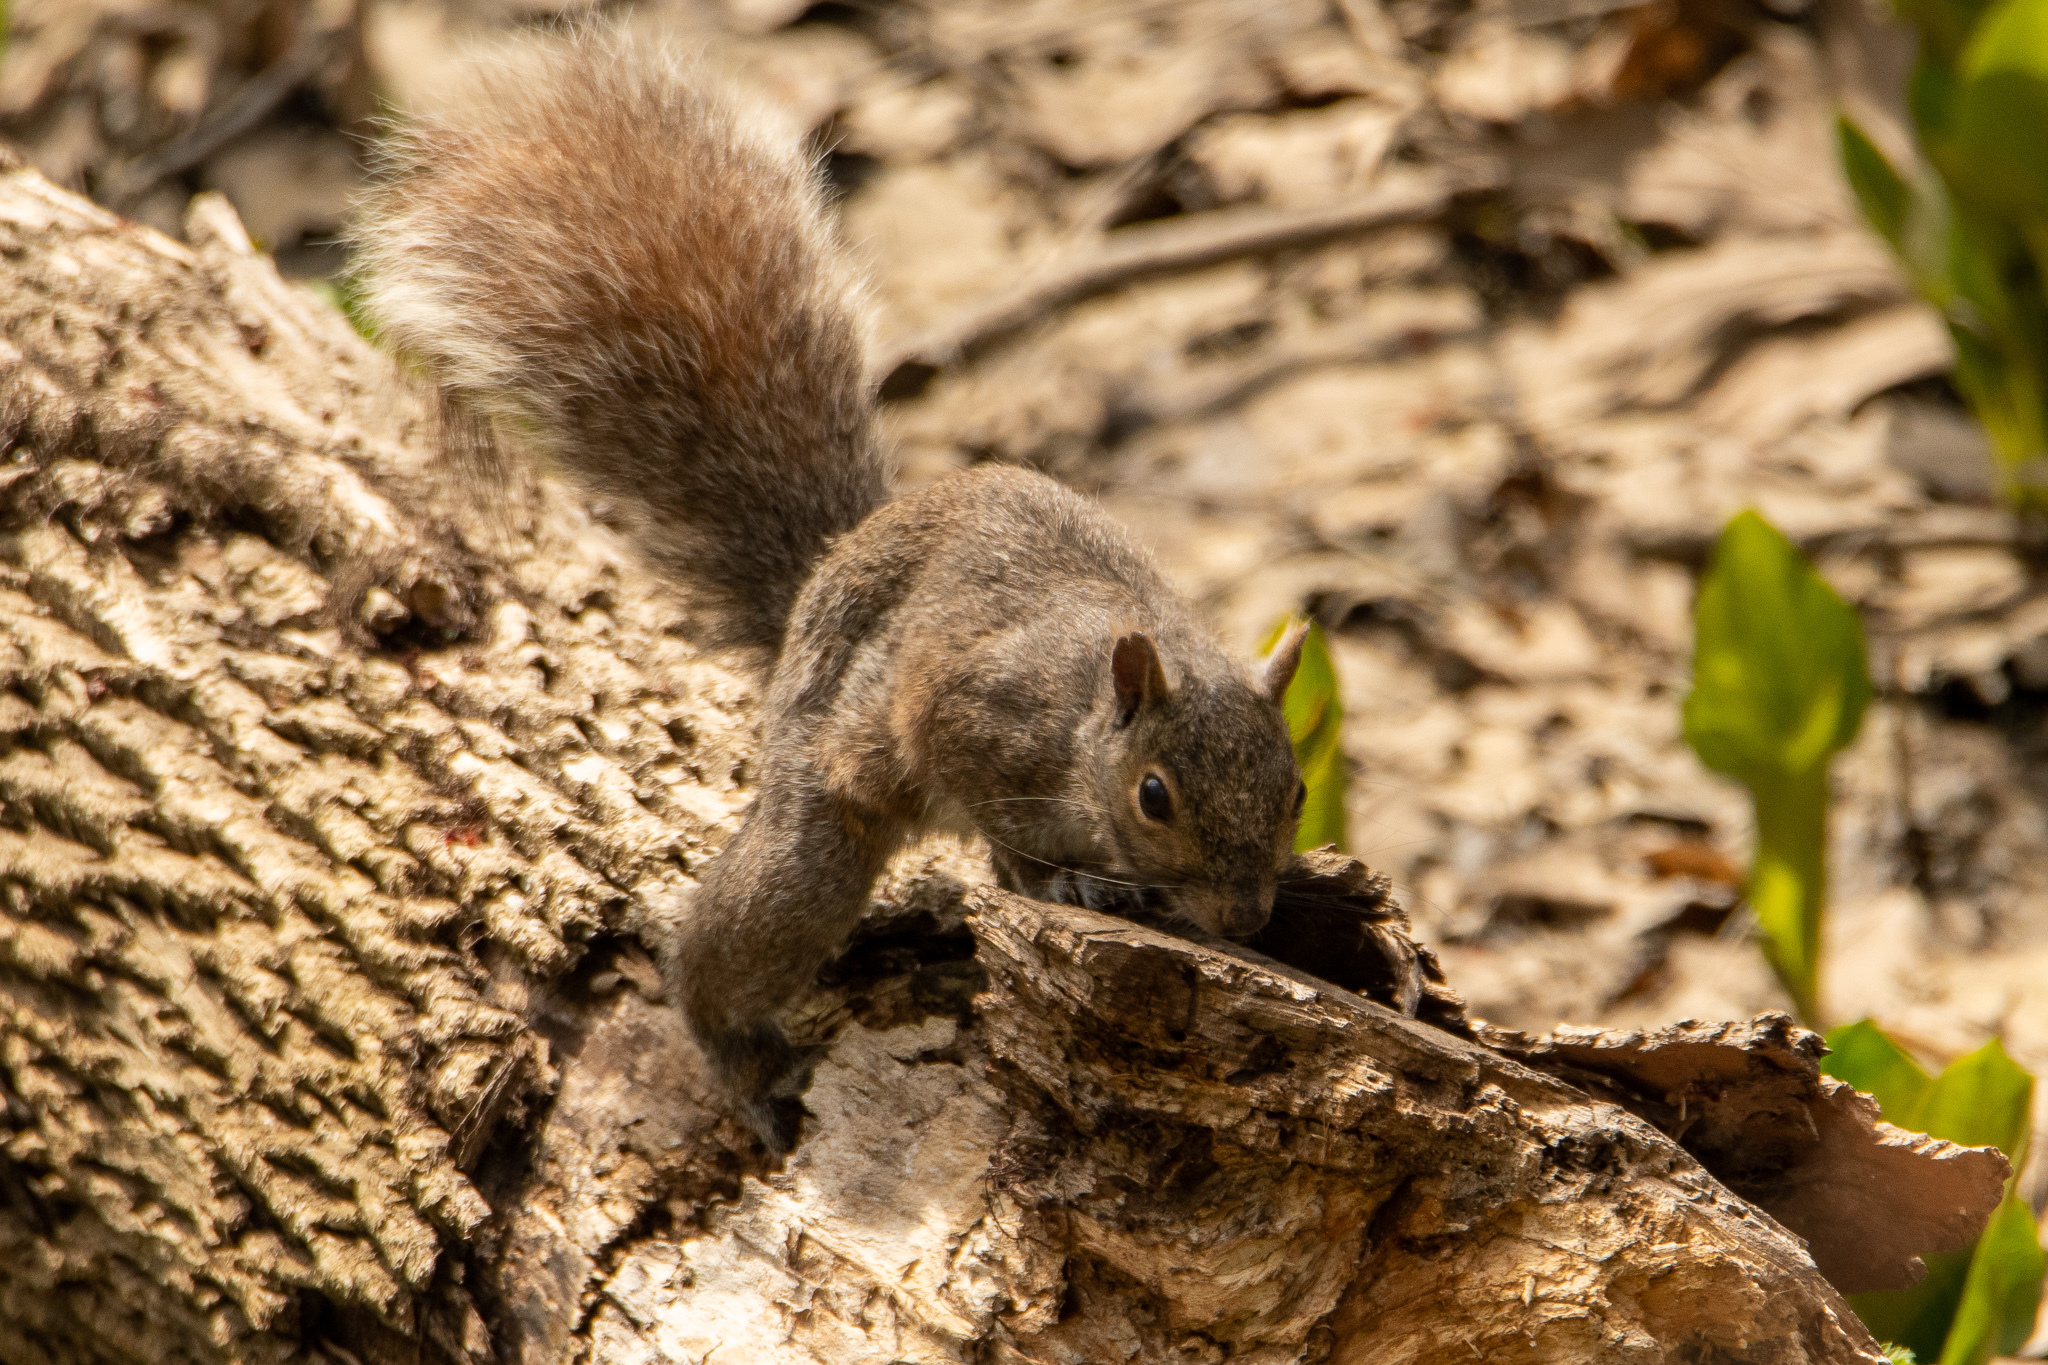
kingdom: Animalia
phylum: Chordata
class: Mammalia
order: Rodentia
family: Sciuridae
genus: Sciurus
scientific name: Sciurus carolinensis
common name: Eastern gray squirrel
